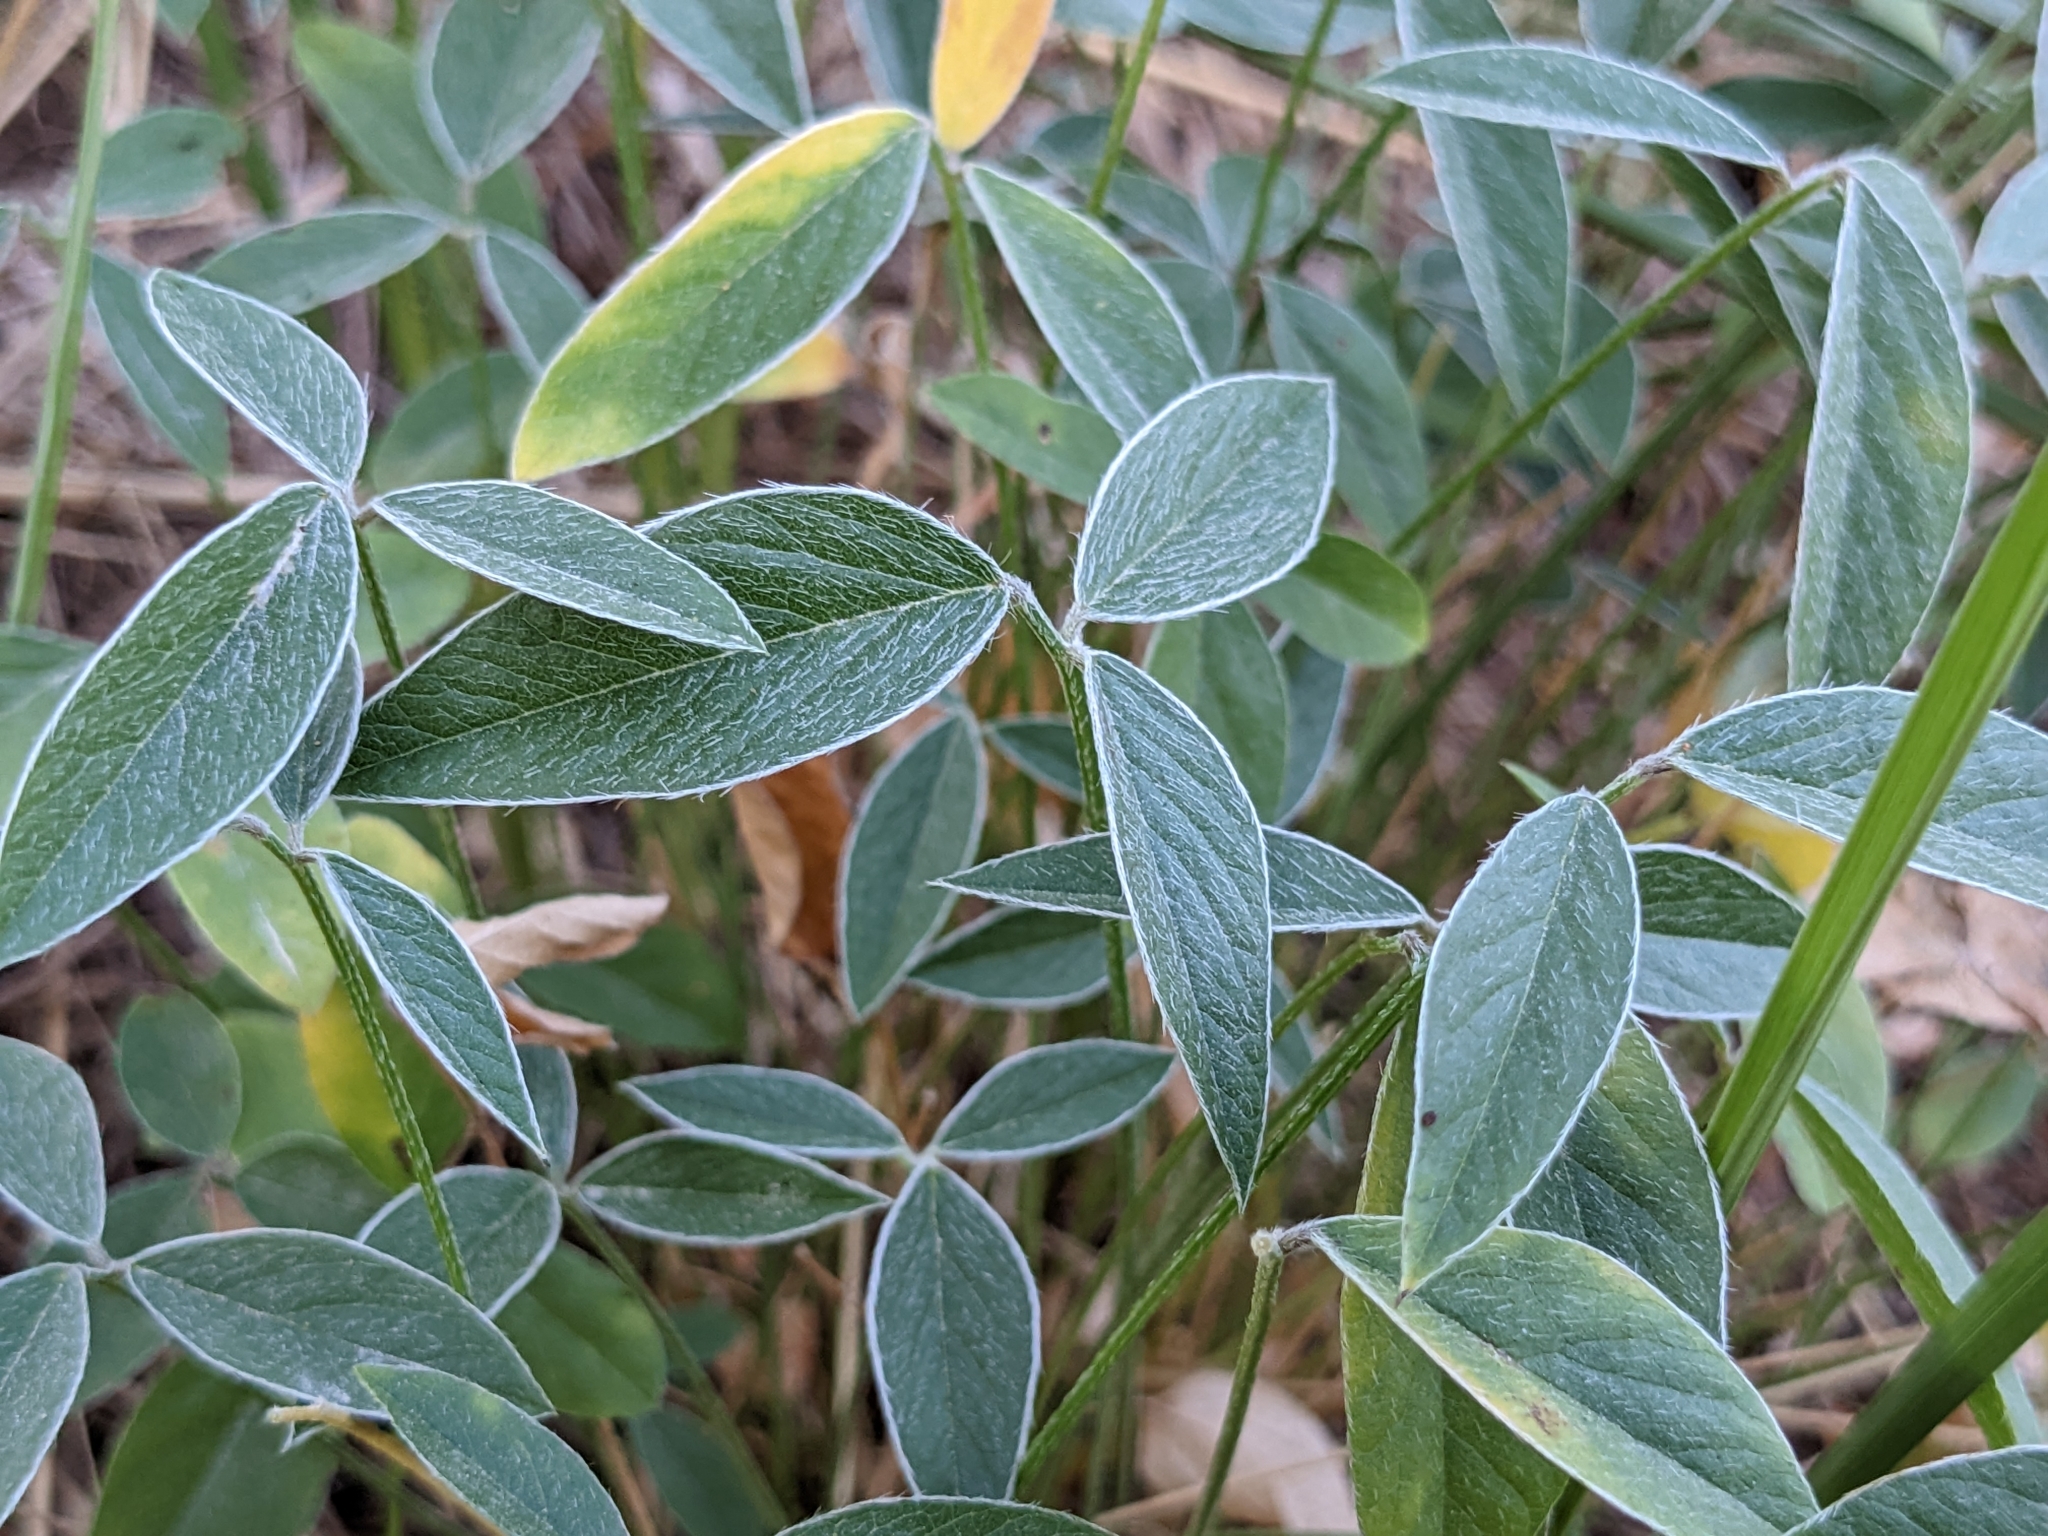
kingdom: Plantae
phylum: Tracheophyta
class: Magnoliopsida
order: Fabales
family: Fabaceae
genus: Bituminaria
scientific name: Bituminaria bituminosa
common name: Arabian pea
